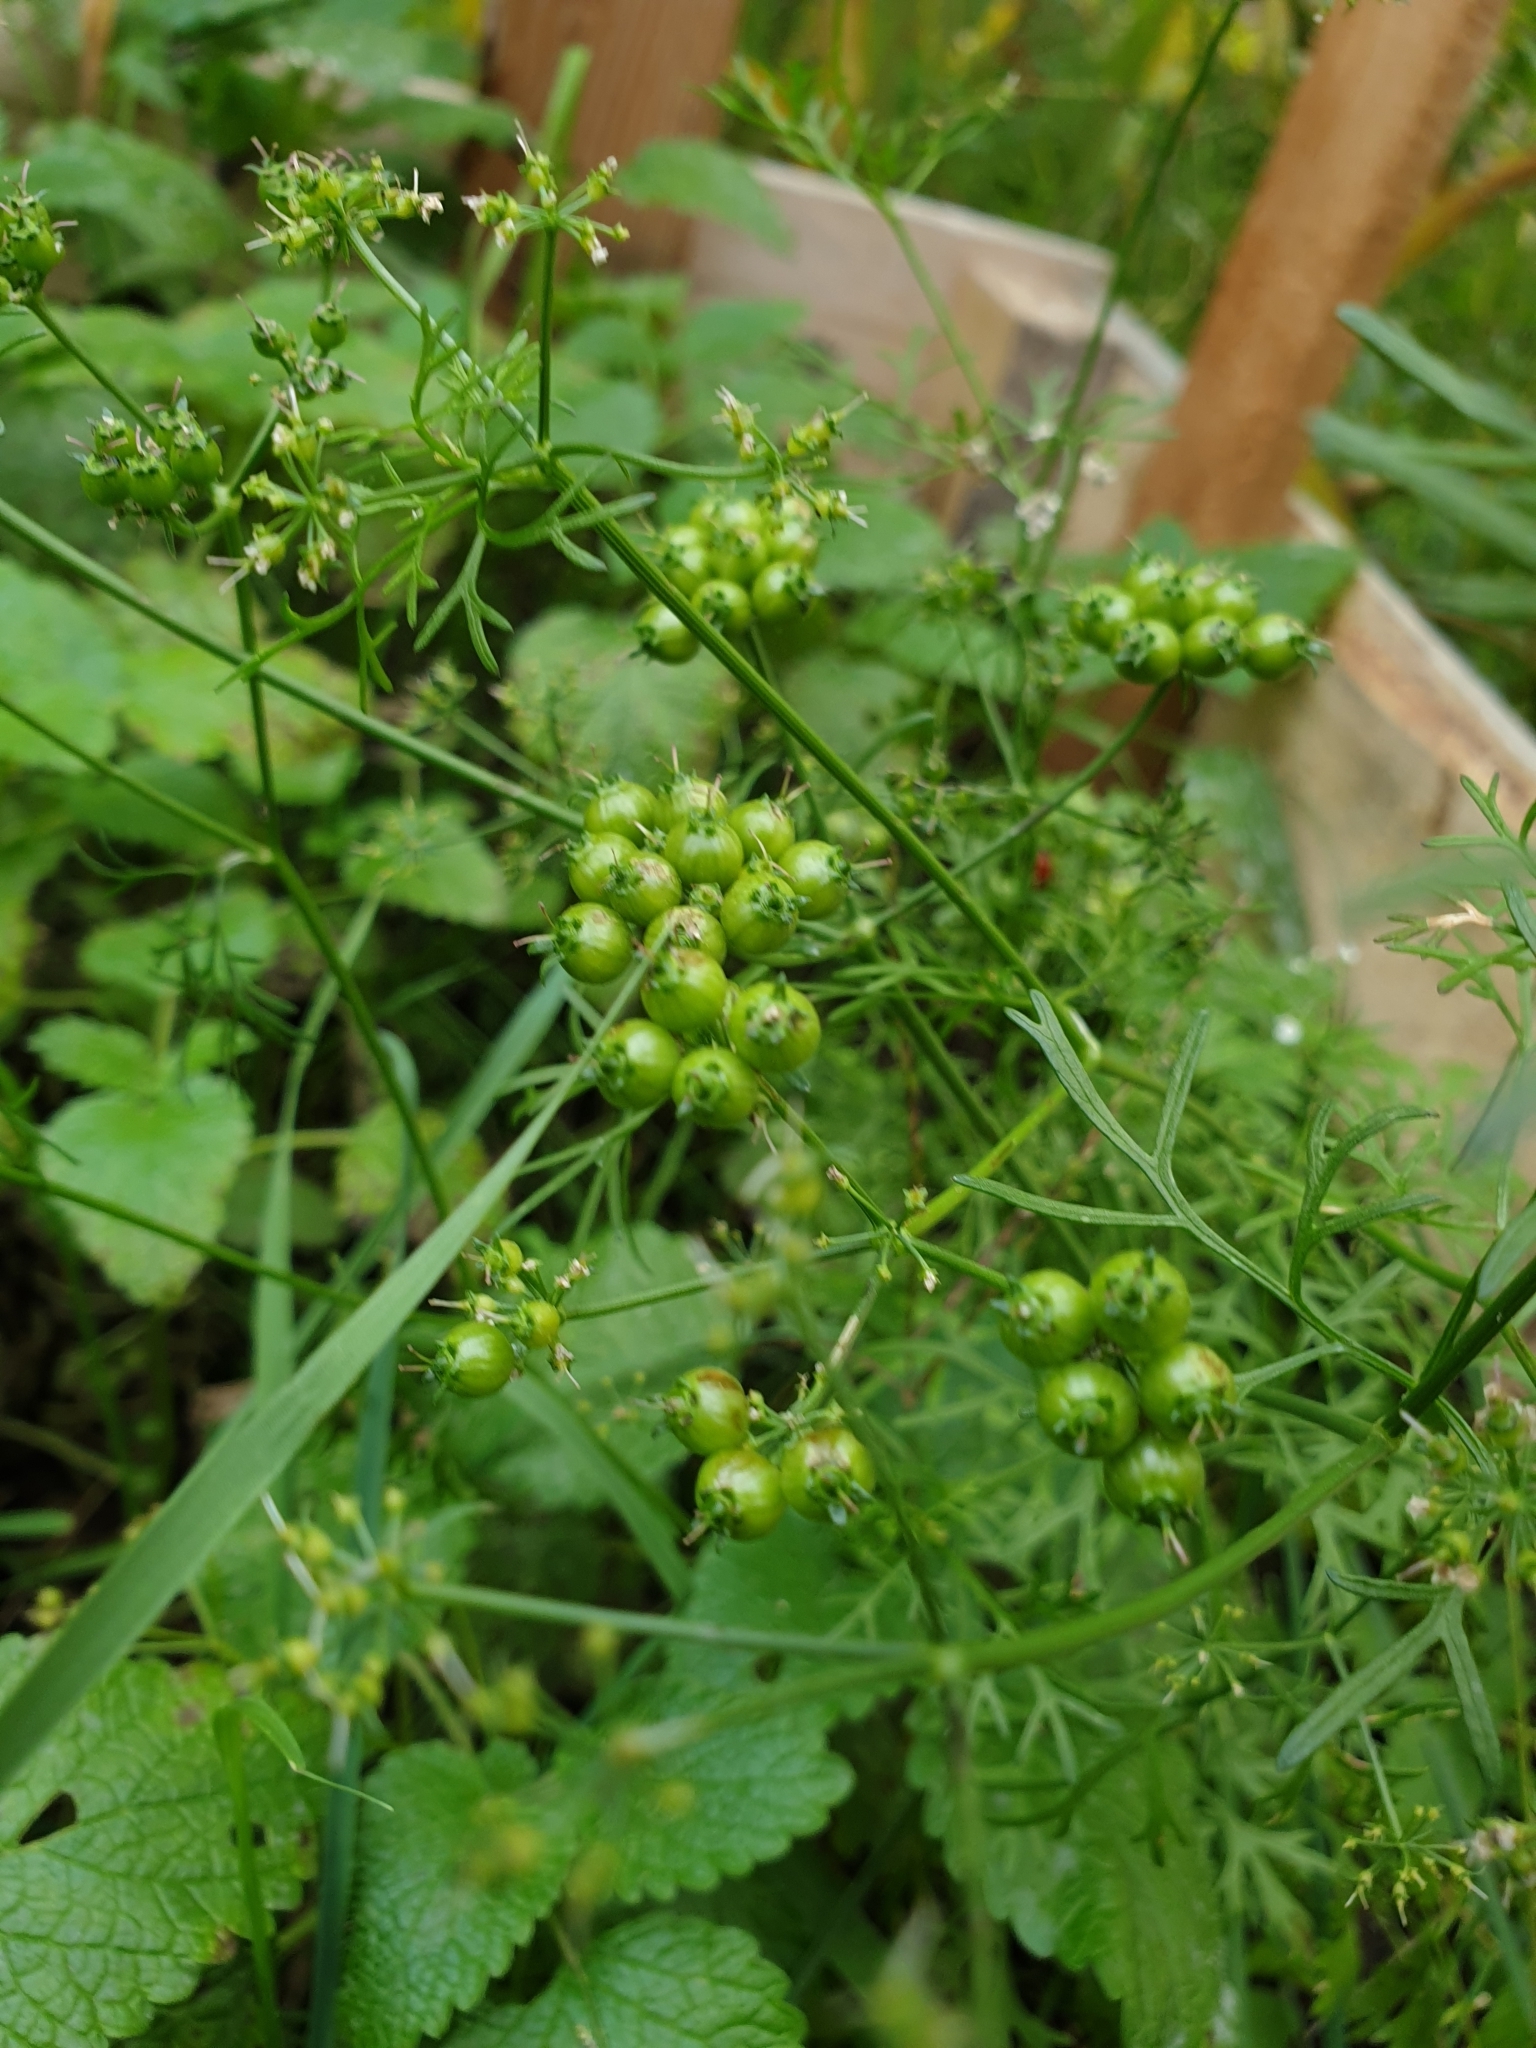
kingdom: Plantae
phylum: Tracheophyta
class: Magnoliopsida
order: Apiales
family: Apiaceae
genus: Coriandrum
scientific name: Coriandrum sativum
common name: Coriander
